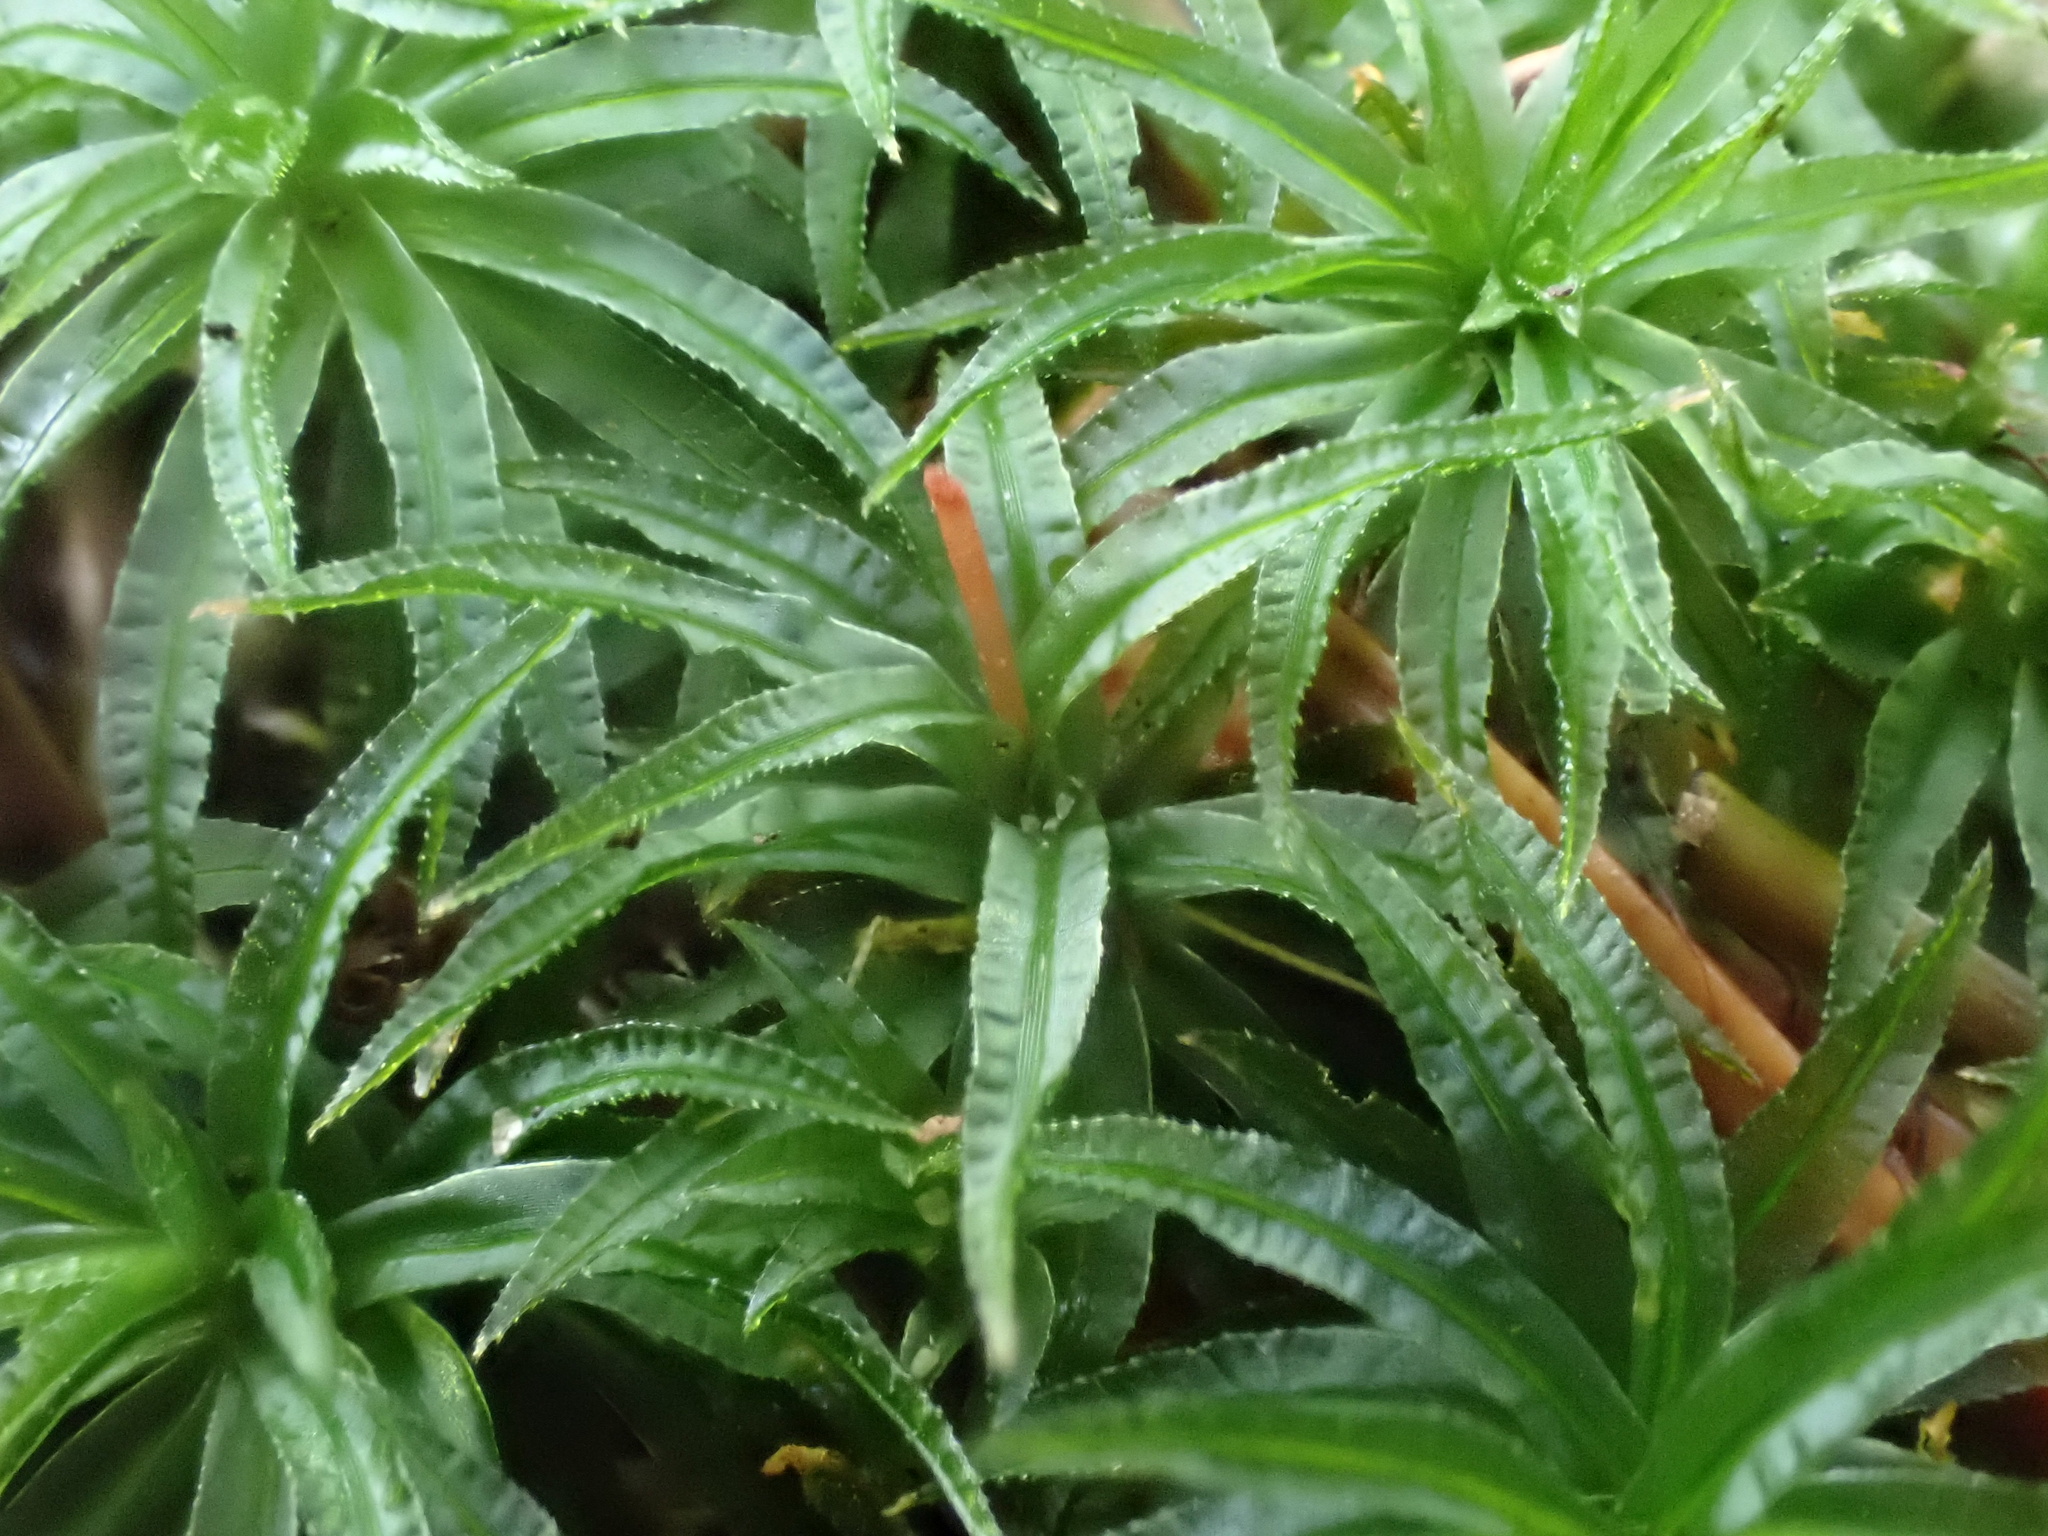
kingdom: Plantae
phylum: Bryophyta
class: Polytrichopsida
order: Polytrichales
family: Polytrichaceae
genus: Atrichum
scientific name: Atrichum undulatum
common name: Common smoothcap
